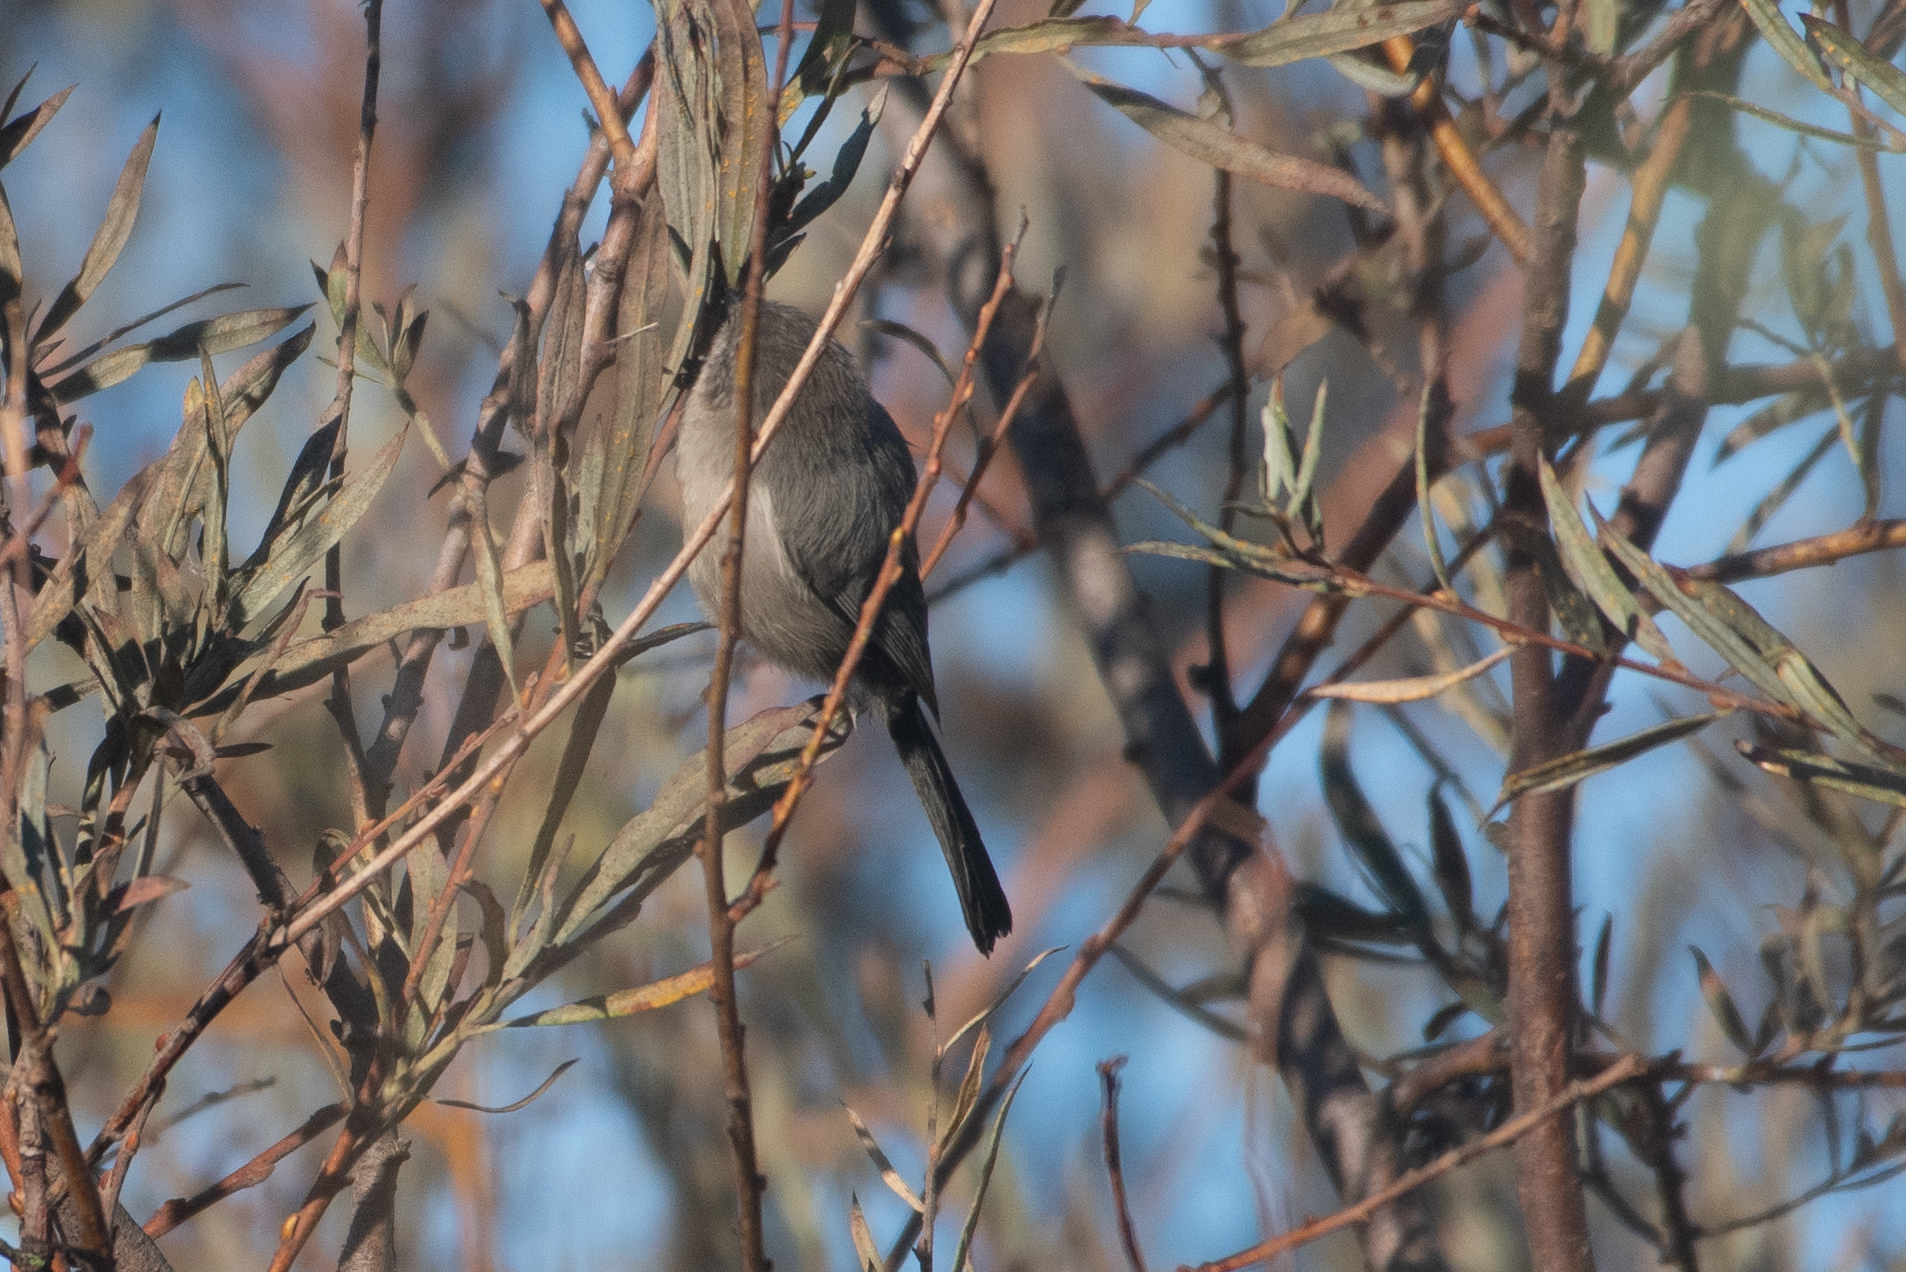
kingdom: Animalia
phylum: Chordata
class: Aves
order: Passeriformes
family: Aegithalidae
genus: Psaltriparus
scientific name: Psaltriparus minimus
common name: American bushtit
